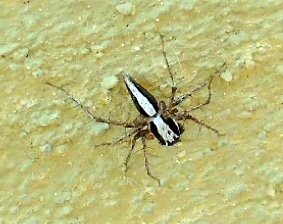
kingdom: Animalia
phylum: Arthropoda
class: Arachnida
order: Araneae
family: Oxyopidae
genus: Oxyopes
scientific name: Oxyopes tridens
